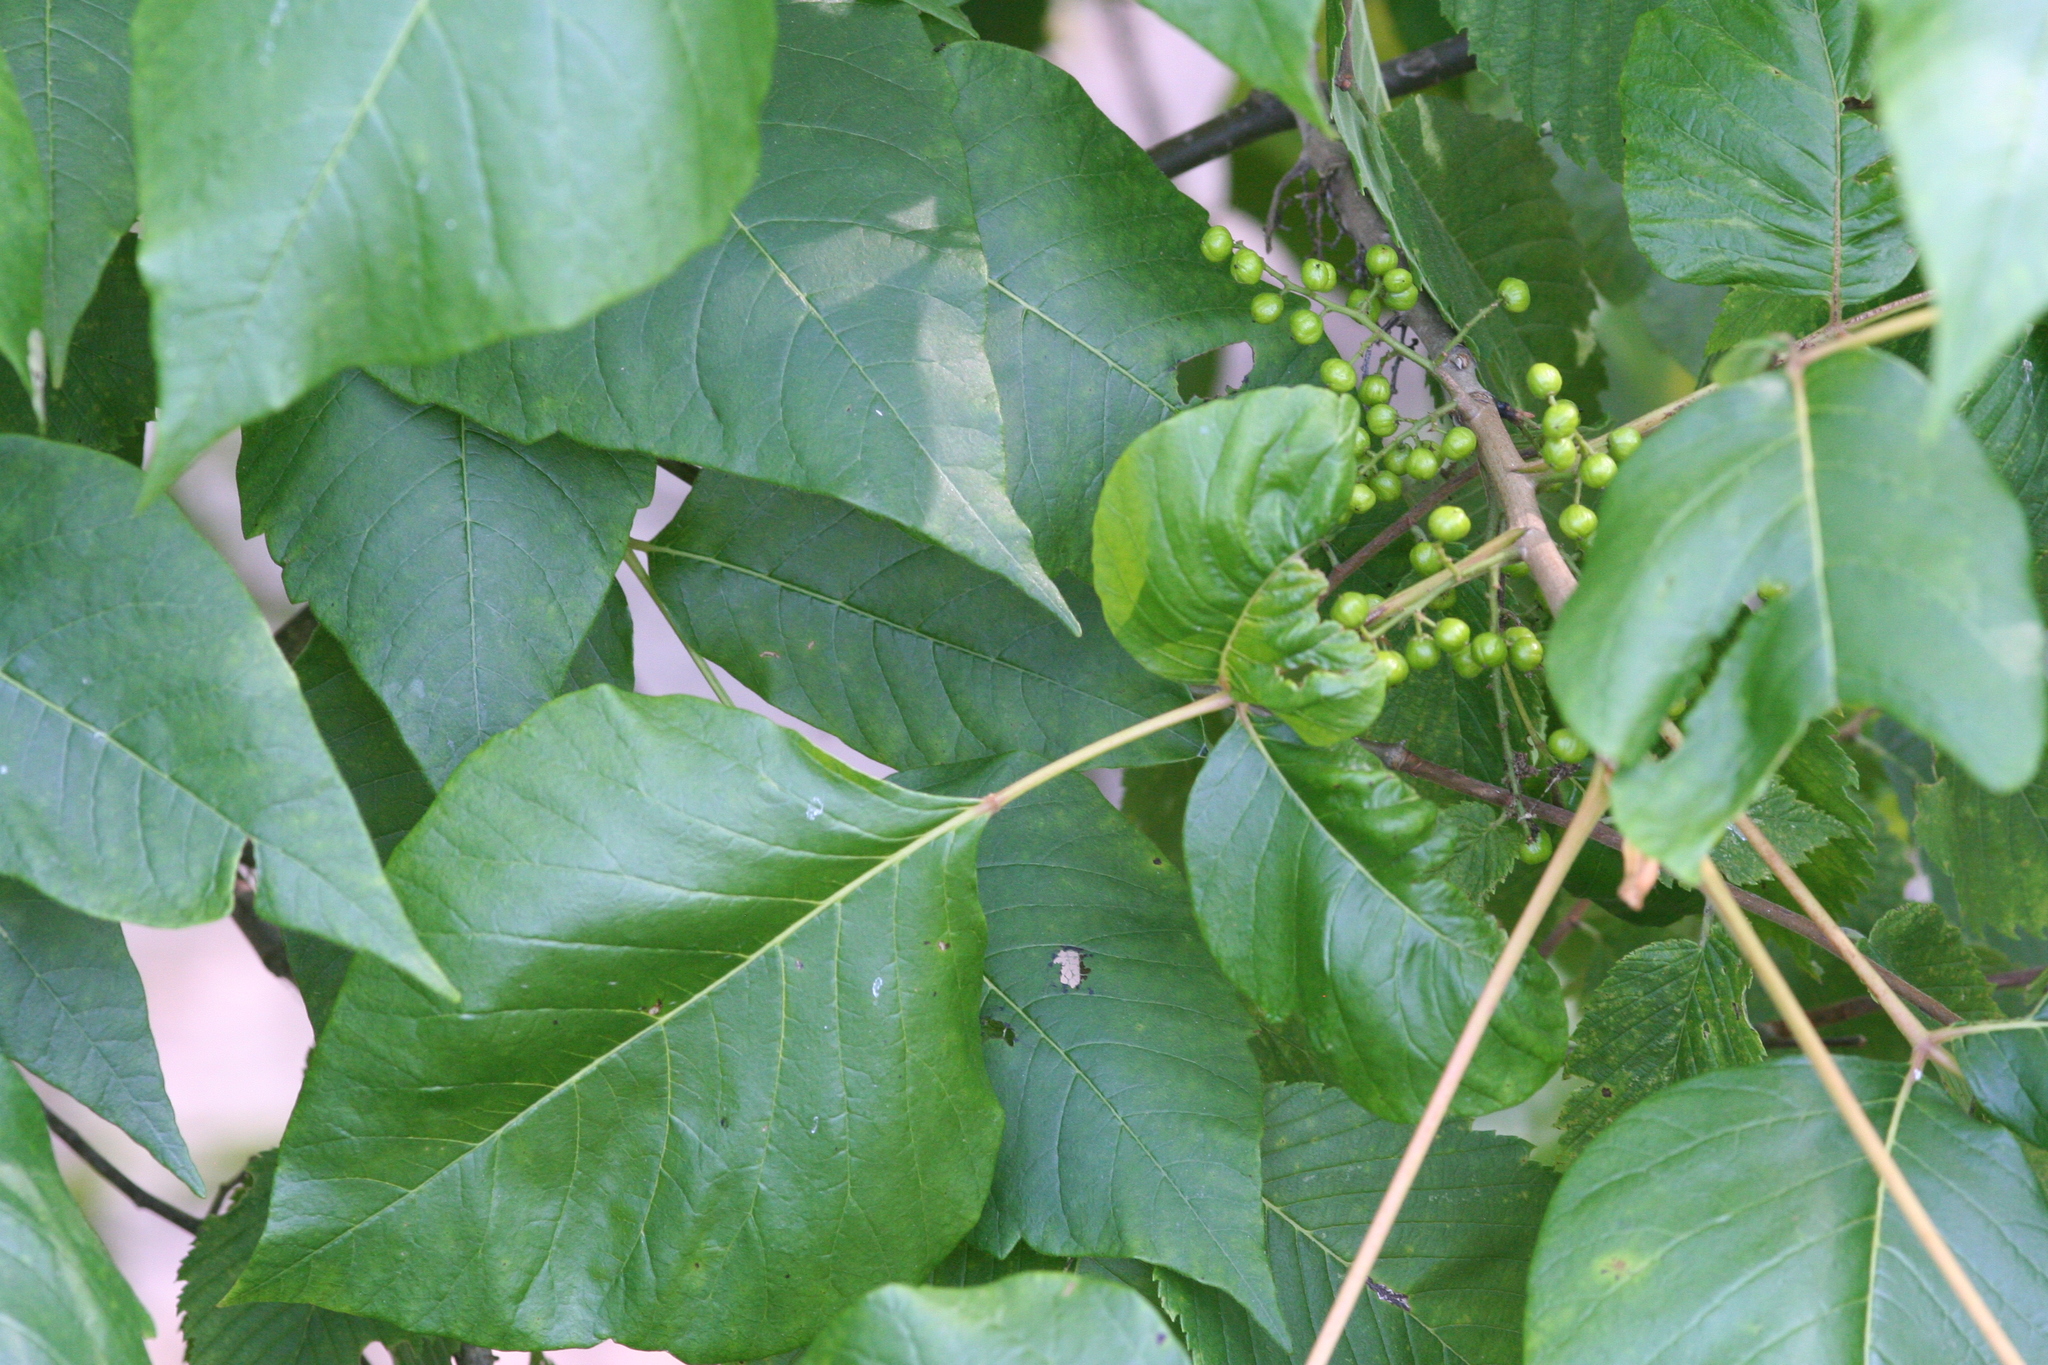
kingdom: Plantae
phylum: Tracheophyta
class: Magnoliopsida
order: Sapindales
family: Anacardiaceae
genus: Toxicodendron
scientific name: Toxicodendron radicans
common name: Poison ivy
